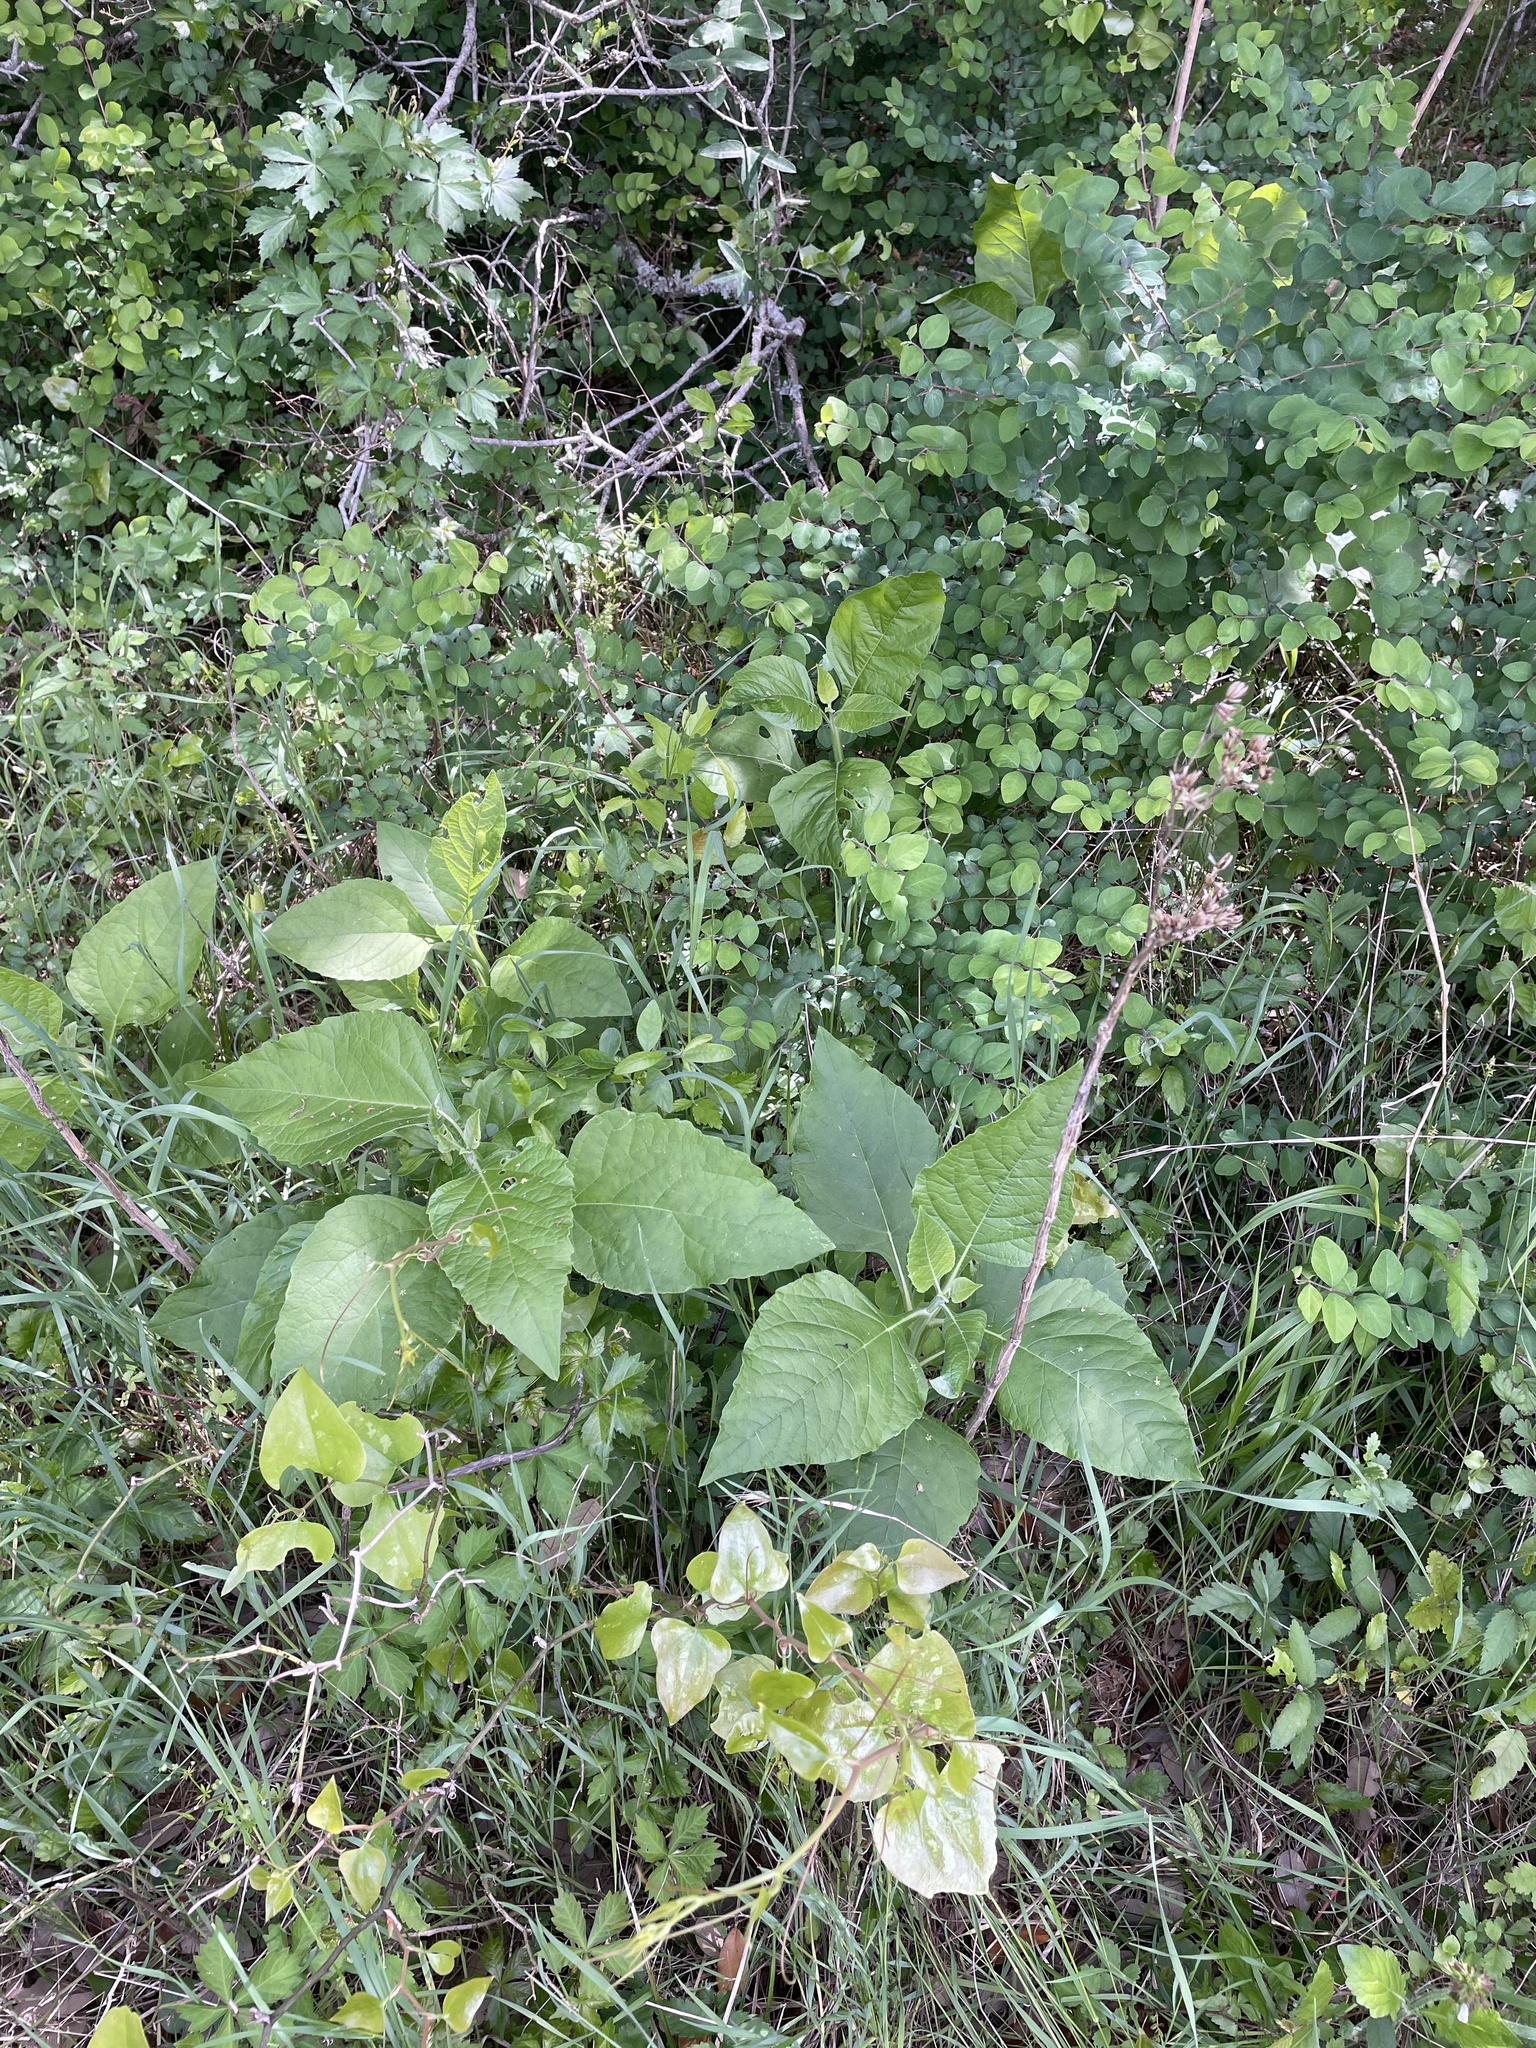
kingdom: Plantae
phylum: Tracheophyta
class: Magnoliopsida
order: Asterales
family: Asteraceae
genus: Verbesina
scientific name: Verbesina virginica
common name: Frostweed
